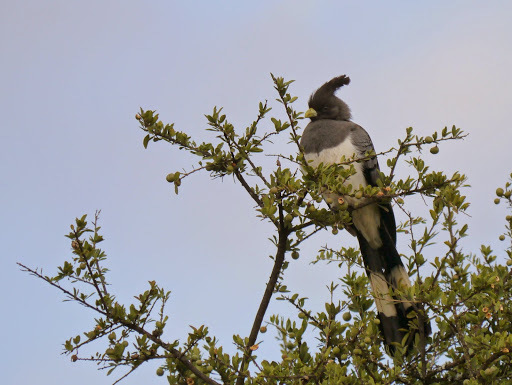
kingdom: Animalia
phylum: Chordata
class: Aves
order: Musophagiformes
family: Musophagidae
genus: Corythaixoides
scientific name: Corythaixoides leucogaster
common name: White-bellied go-away-bird
